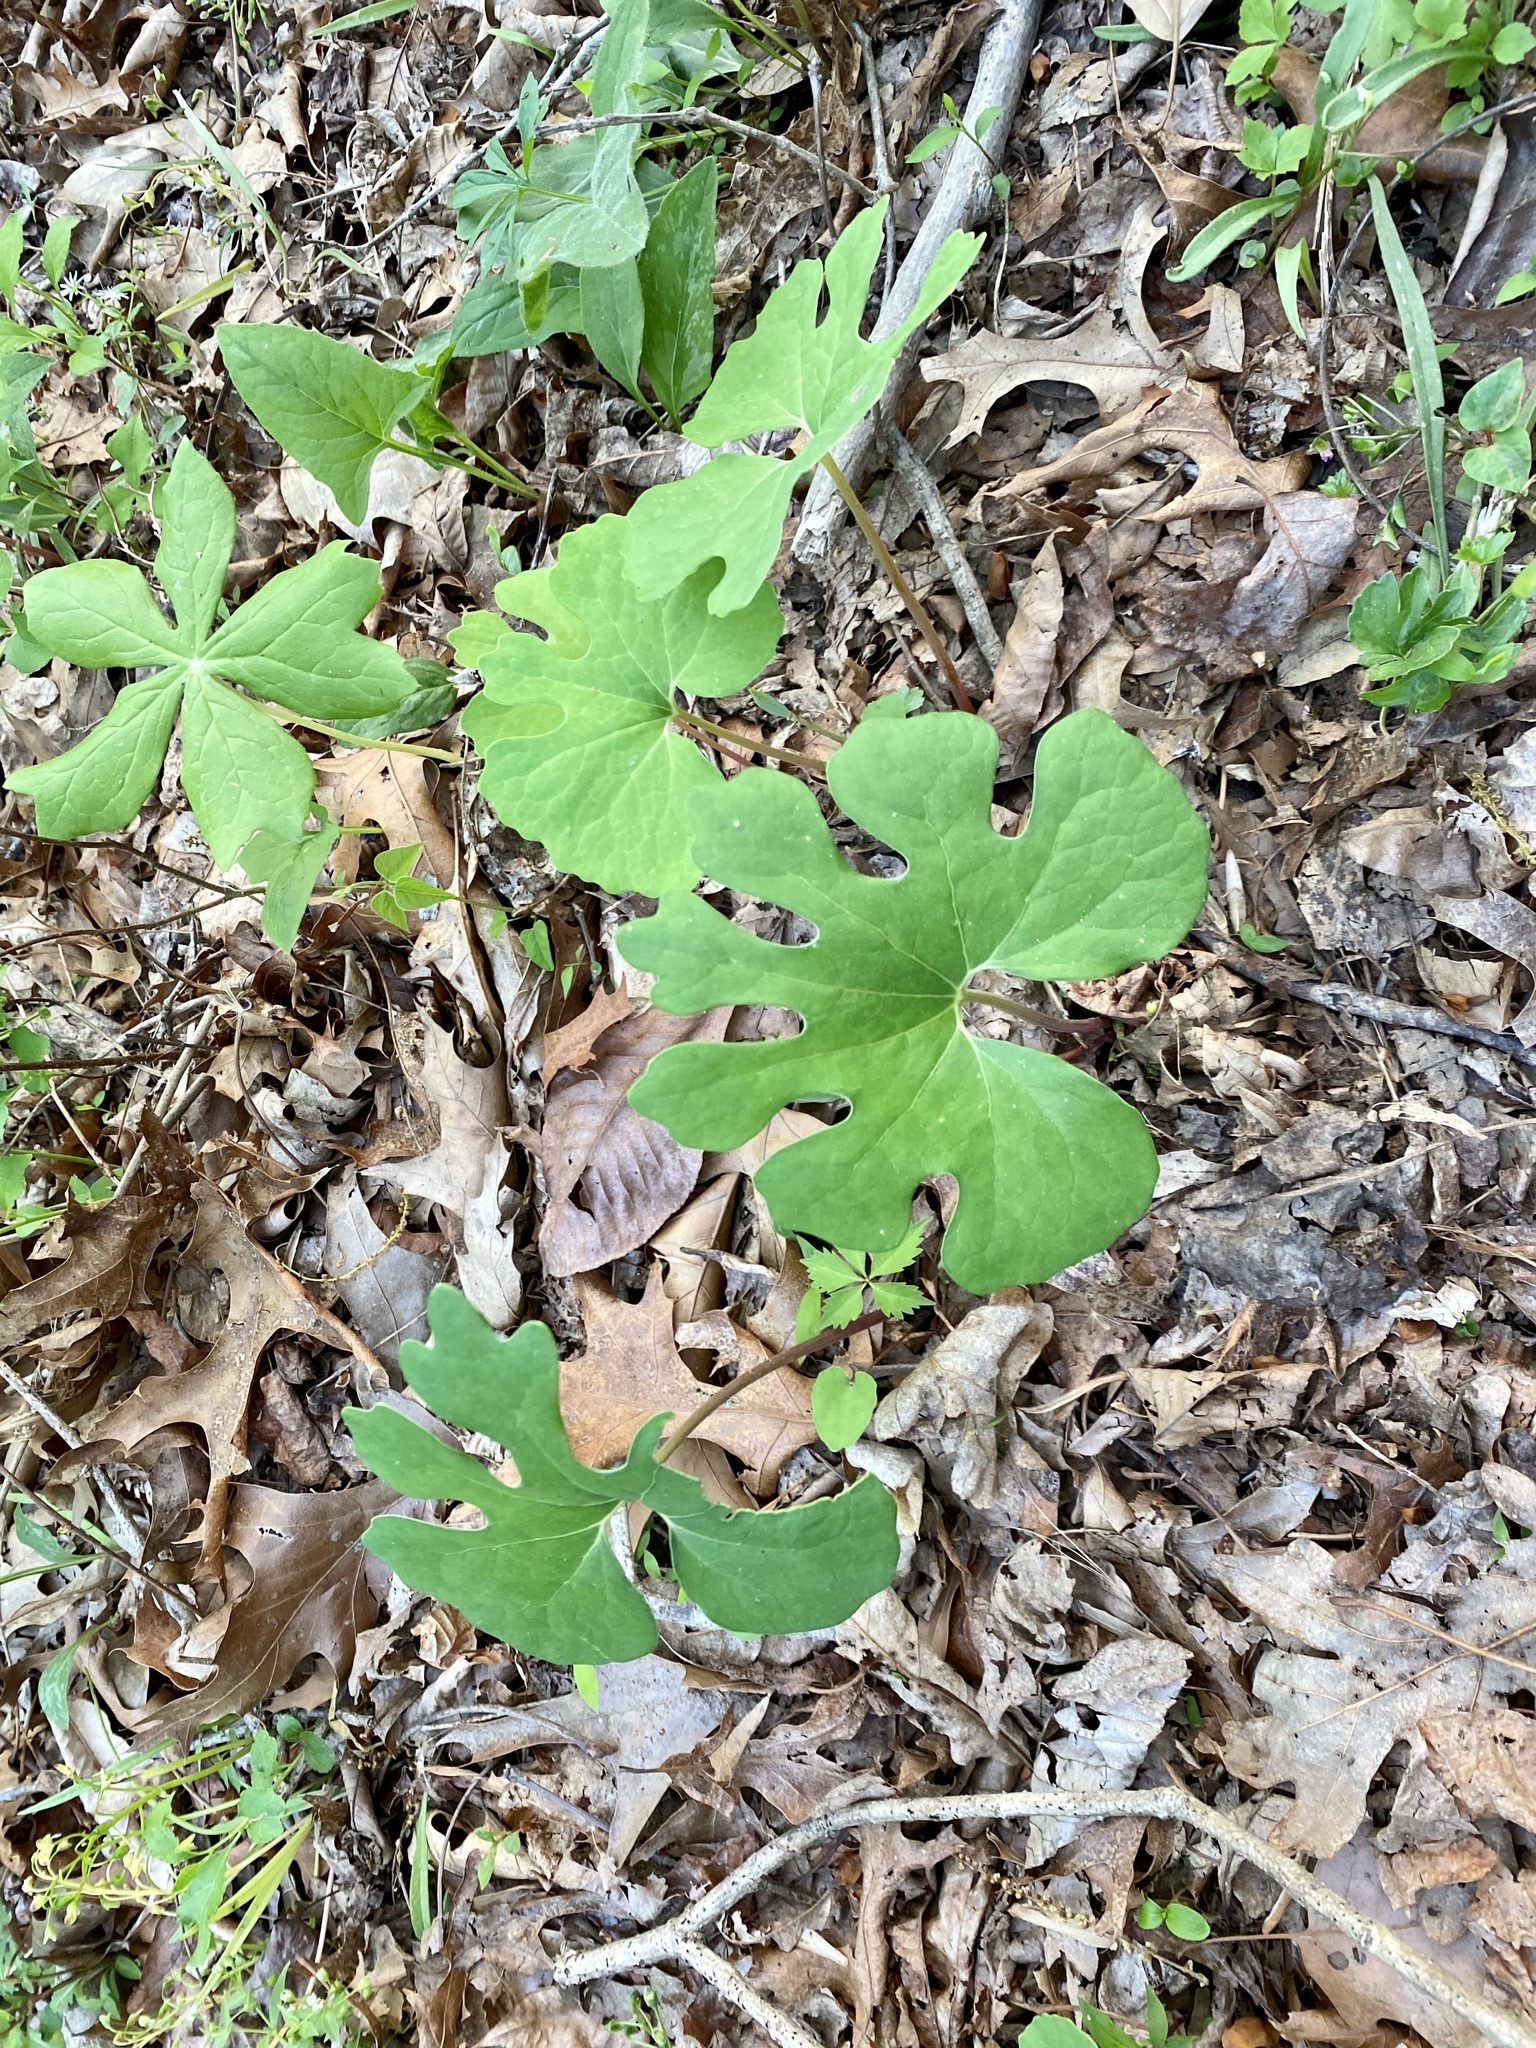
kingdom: Plantae
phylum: Tracheophyta
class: Magnoliopsida
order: Ranunculales
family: Papaveraceae
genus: Sanguinaria
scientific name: Sanguinaria canadensis
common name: Bloodroot
